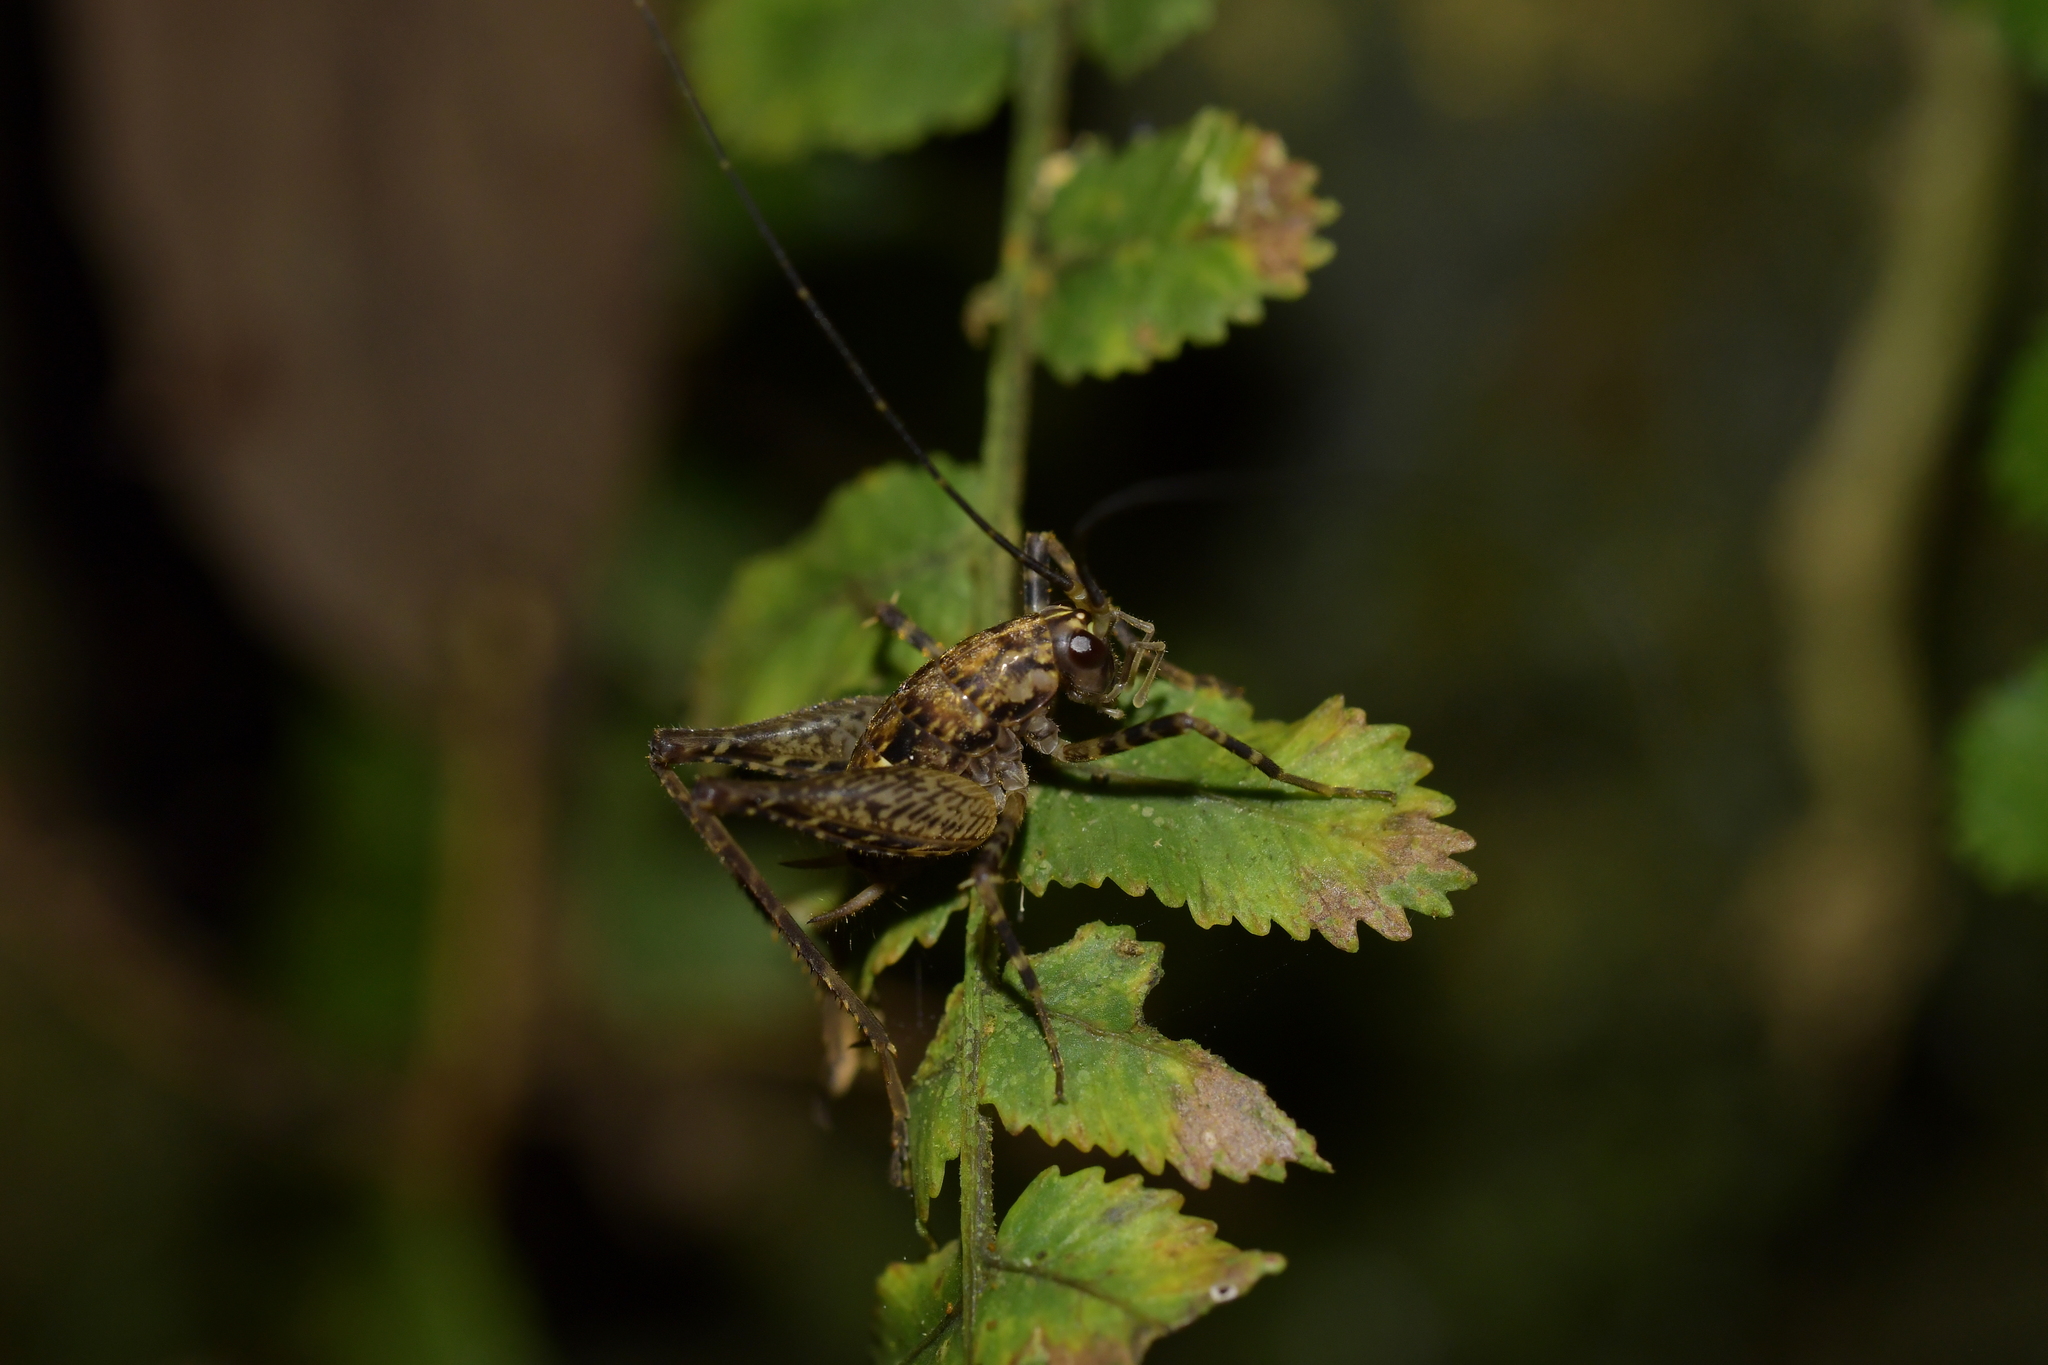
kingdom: Animalia
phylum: Arthropoda
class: Insecta
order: Orthoptera
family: Rhaphidophoridae
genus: Pleioplectron
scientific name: Pleioplectron hudsoni
